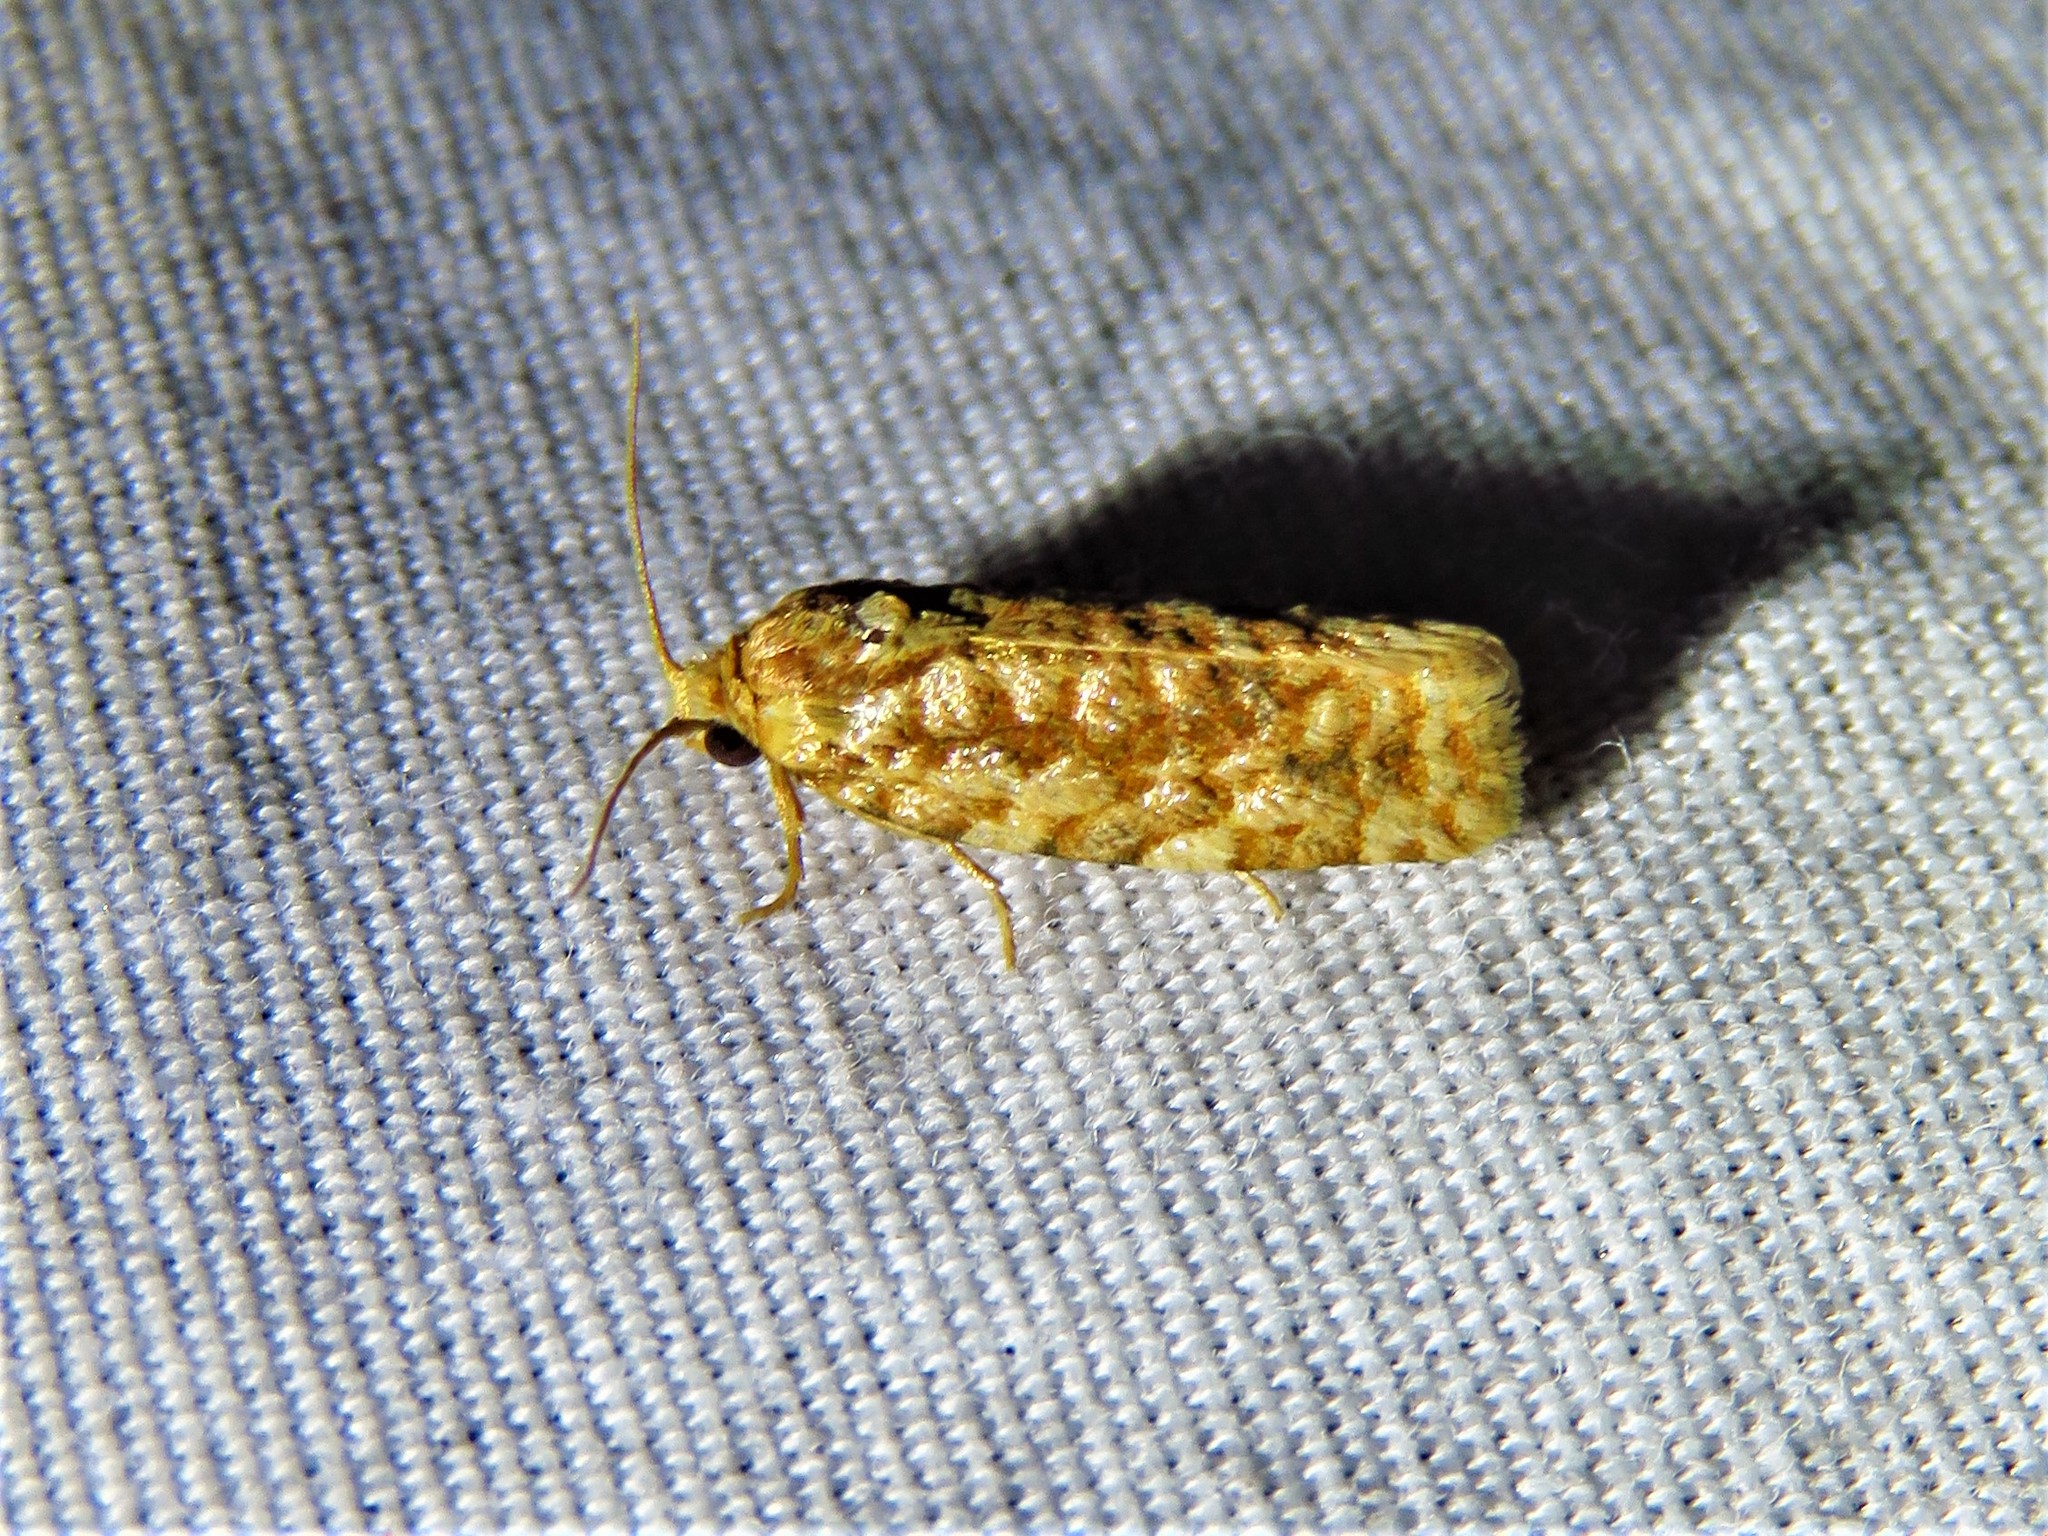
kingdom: Animalia
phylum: Arthropoda
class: Insecta
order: Lepidoptera
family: Tortricidae
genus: Choristoneura
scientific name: Choristoneura houstonana
